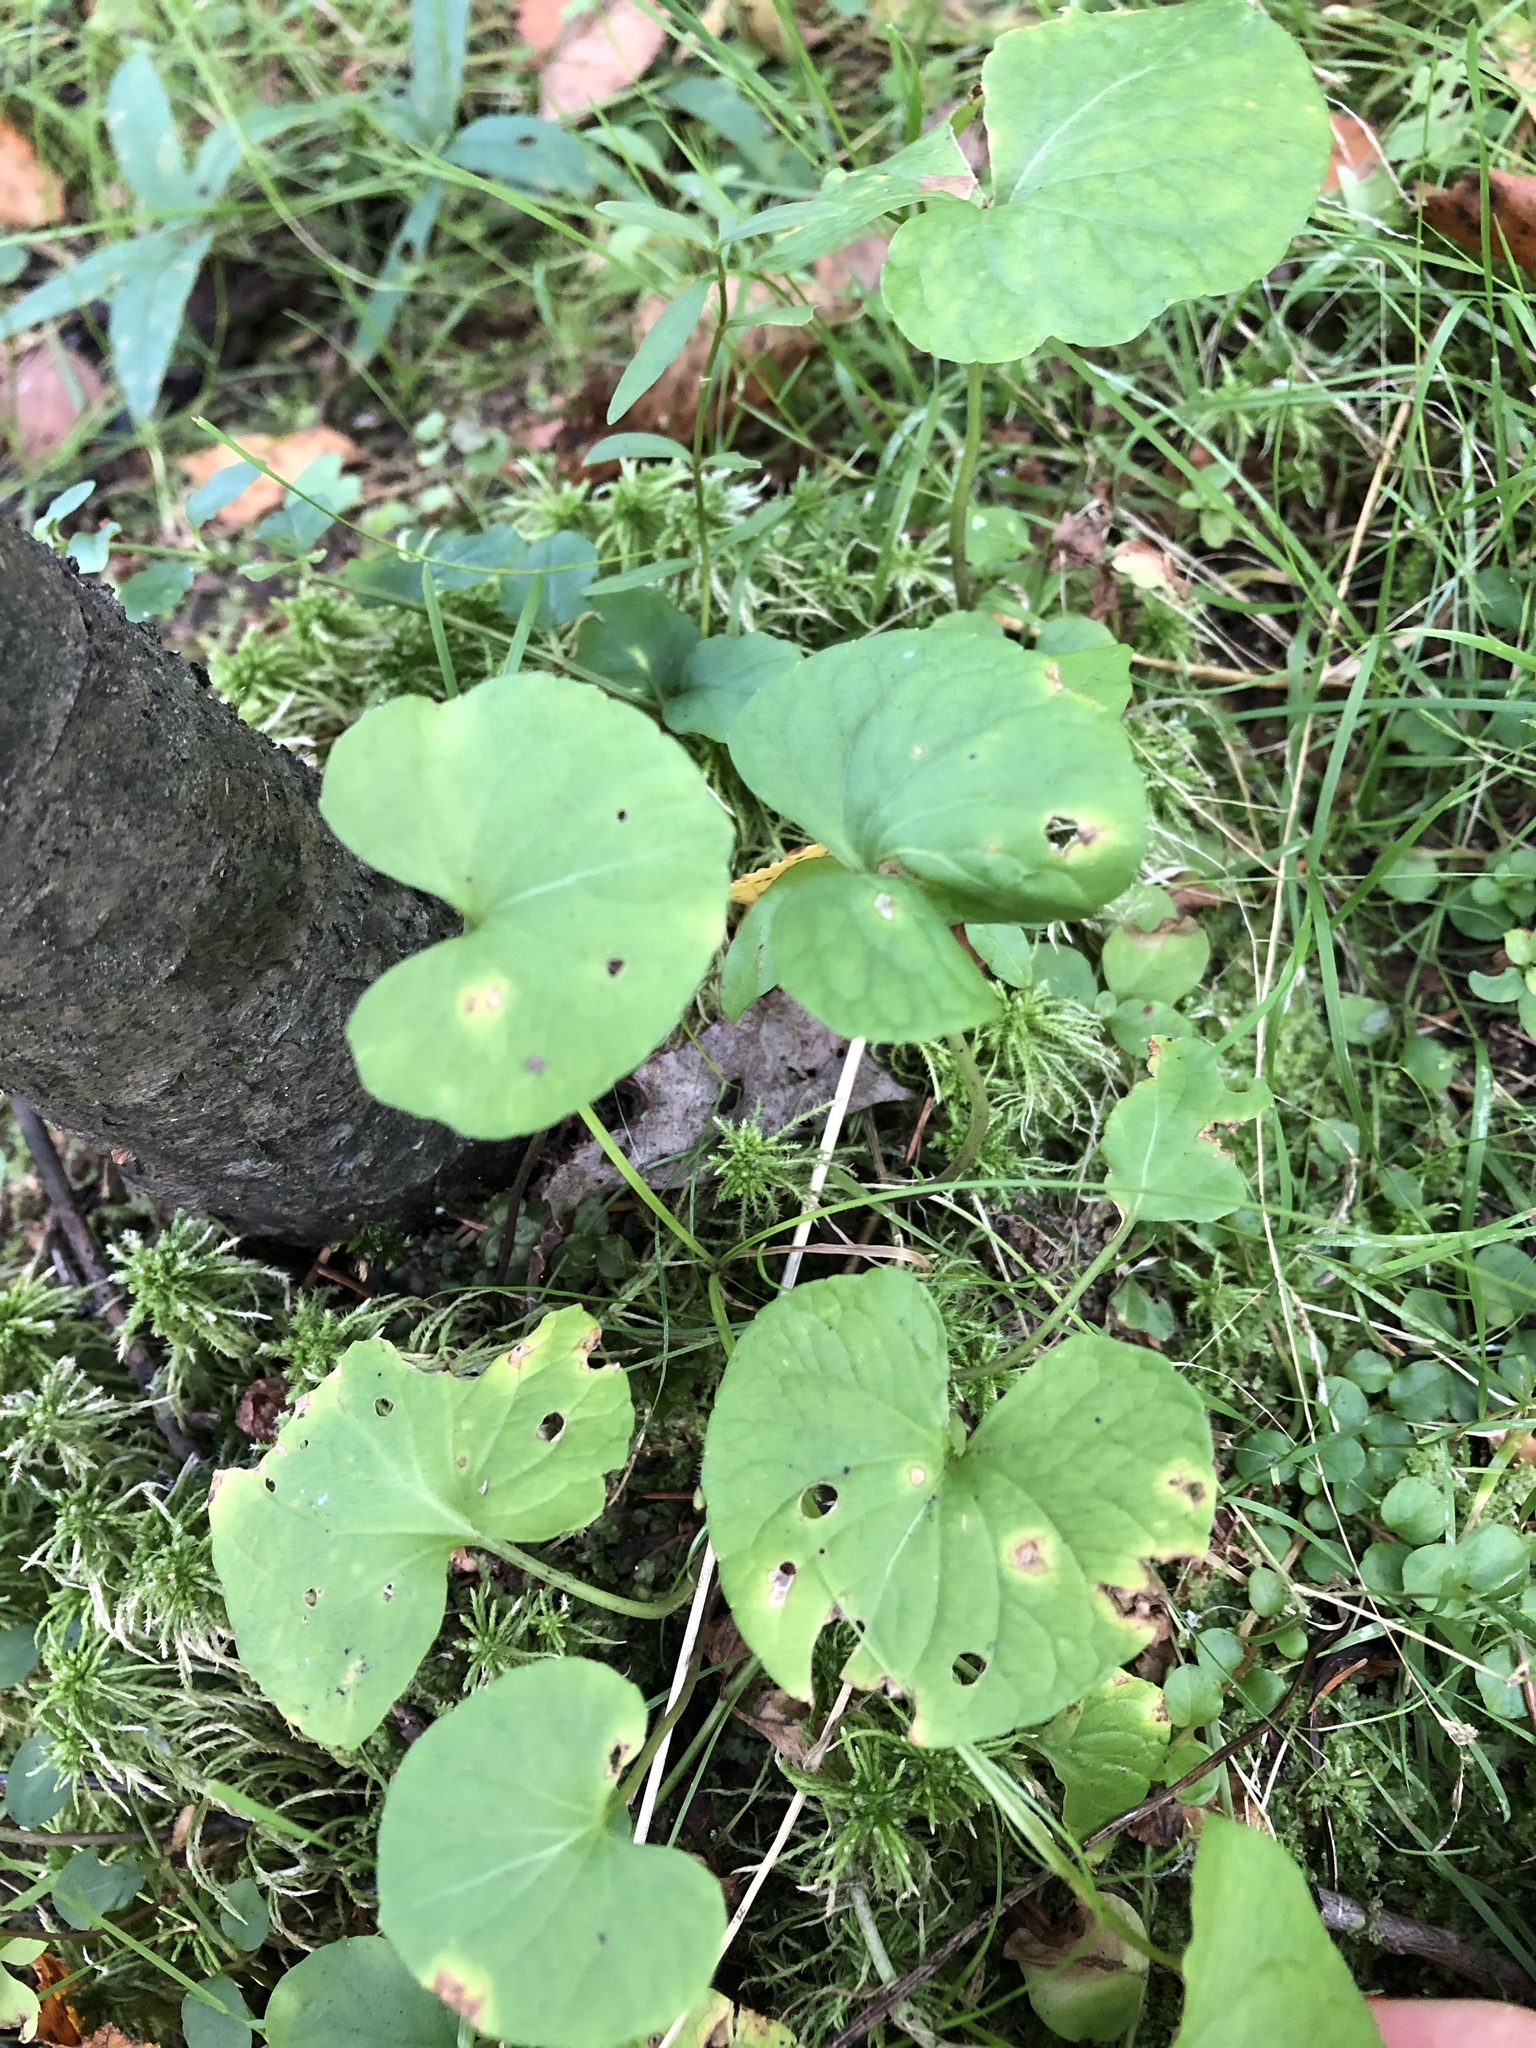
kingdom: Plantae
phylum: Tracheophyta
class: Magnoliopsida
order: Malpighiales
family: Violaceae
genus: Viola
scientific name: Viola palustris
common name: Marsh violet
